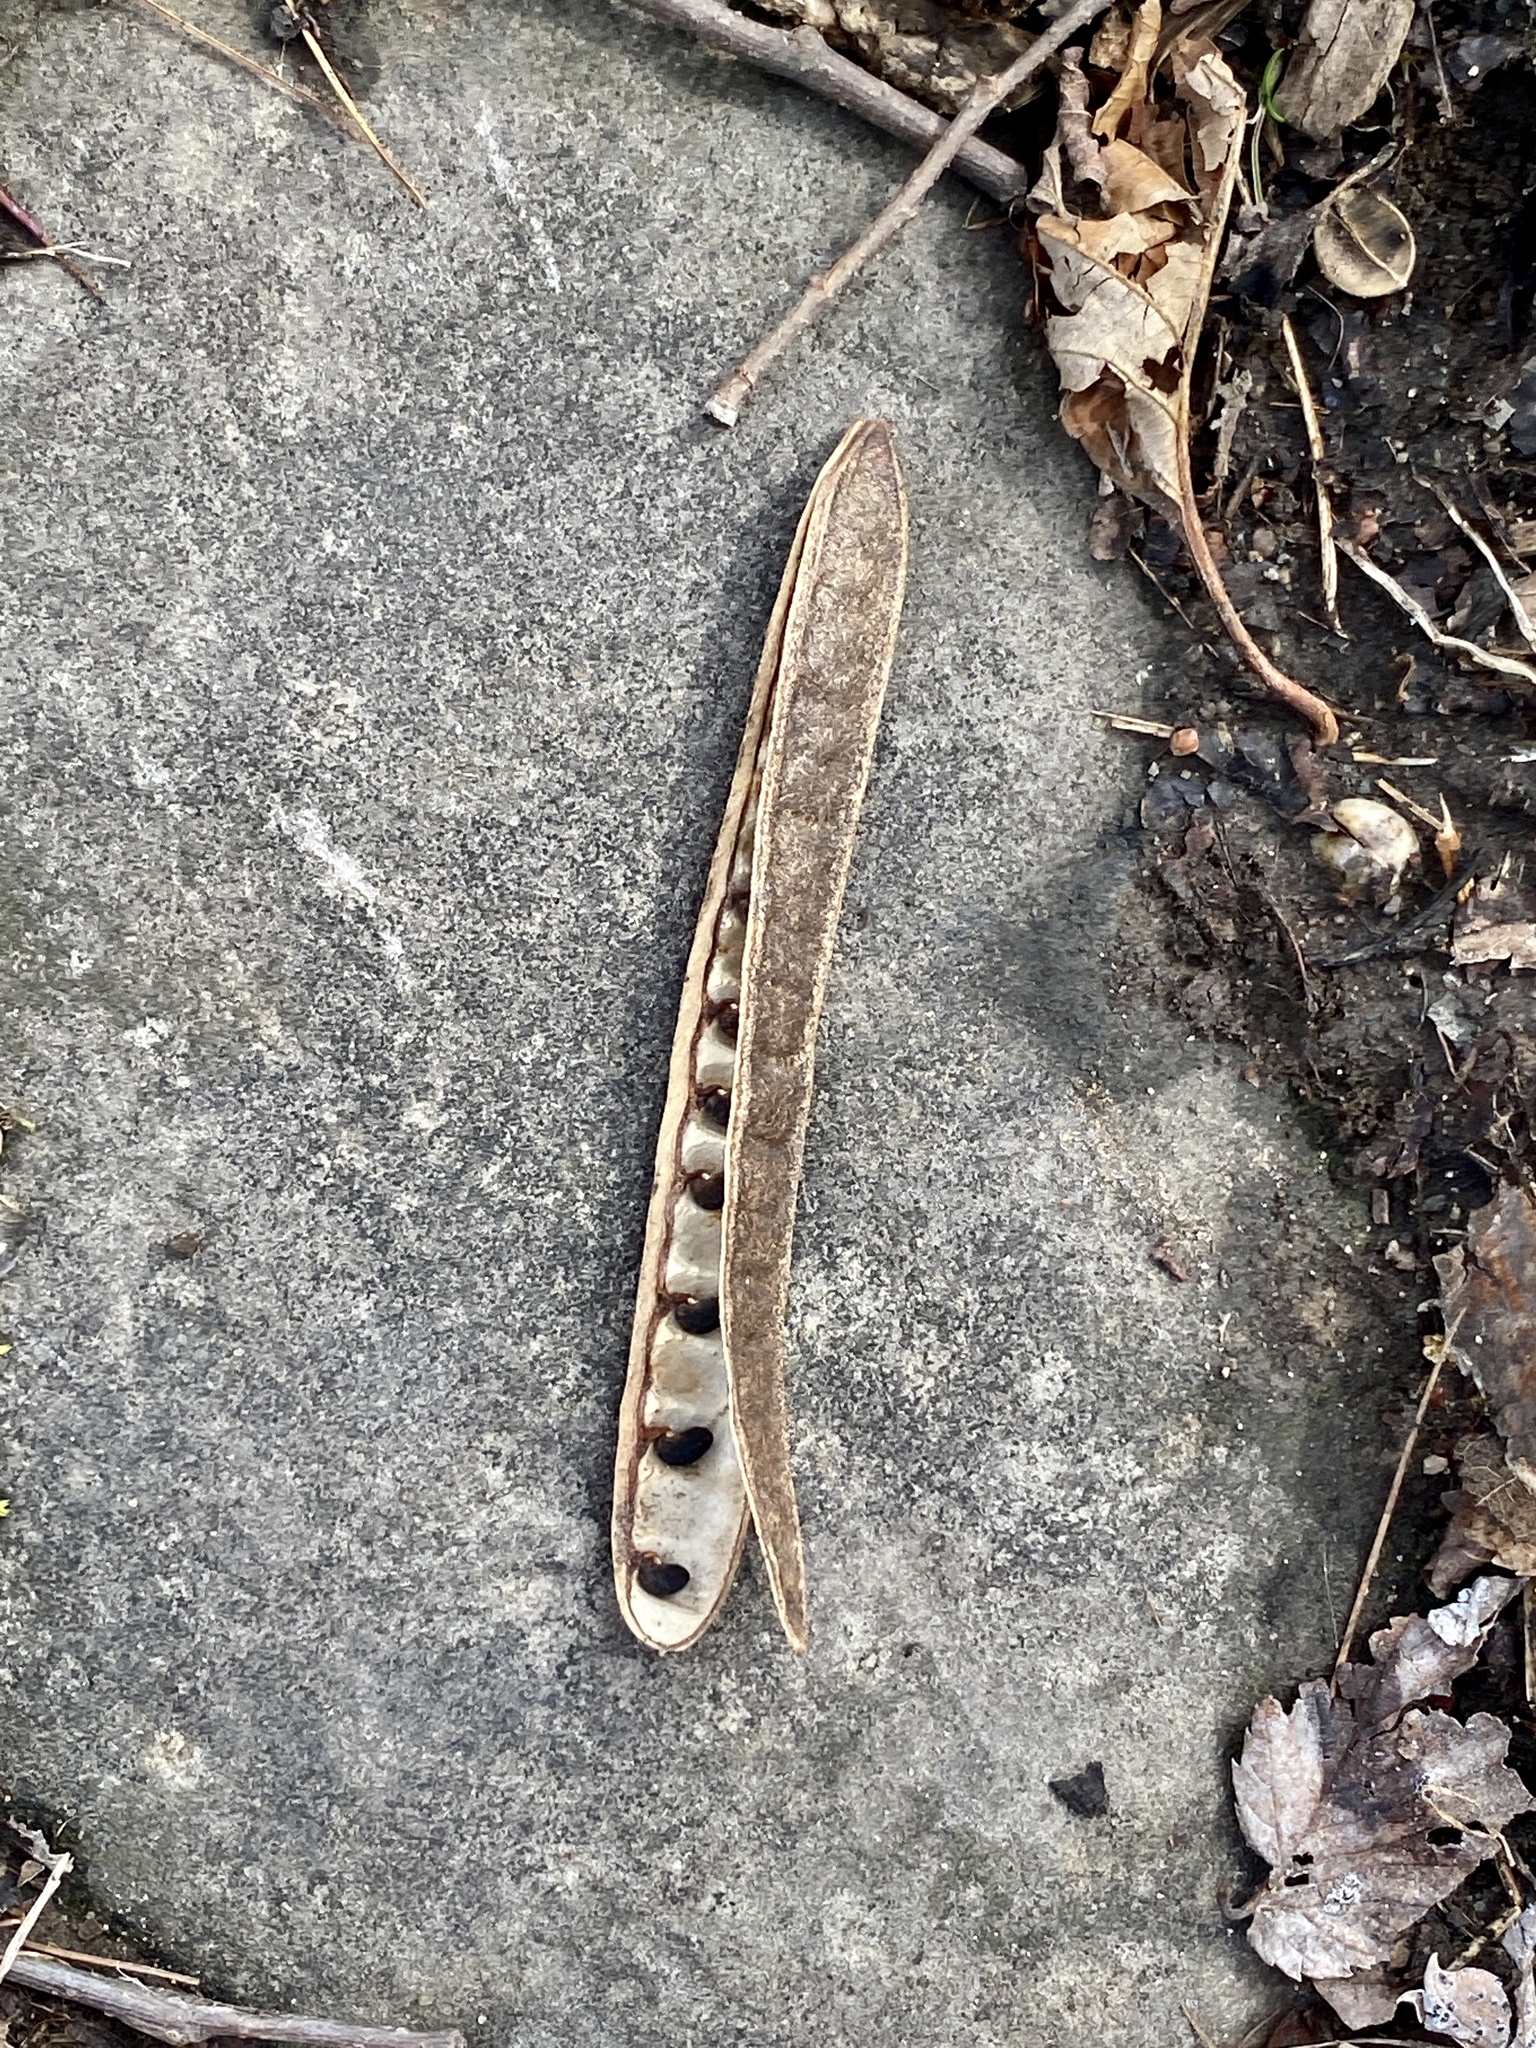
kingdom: Plantae
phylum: Tracheophyta
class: Magnoliopsida
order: Fabales
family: Fabaceae
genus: Robinia
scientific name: Robinia pseudoacacia
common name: Black locust
